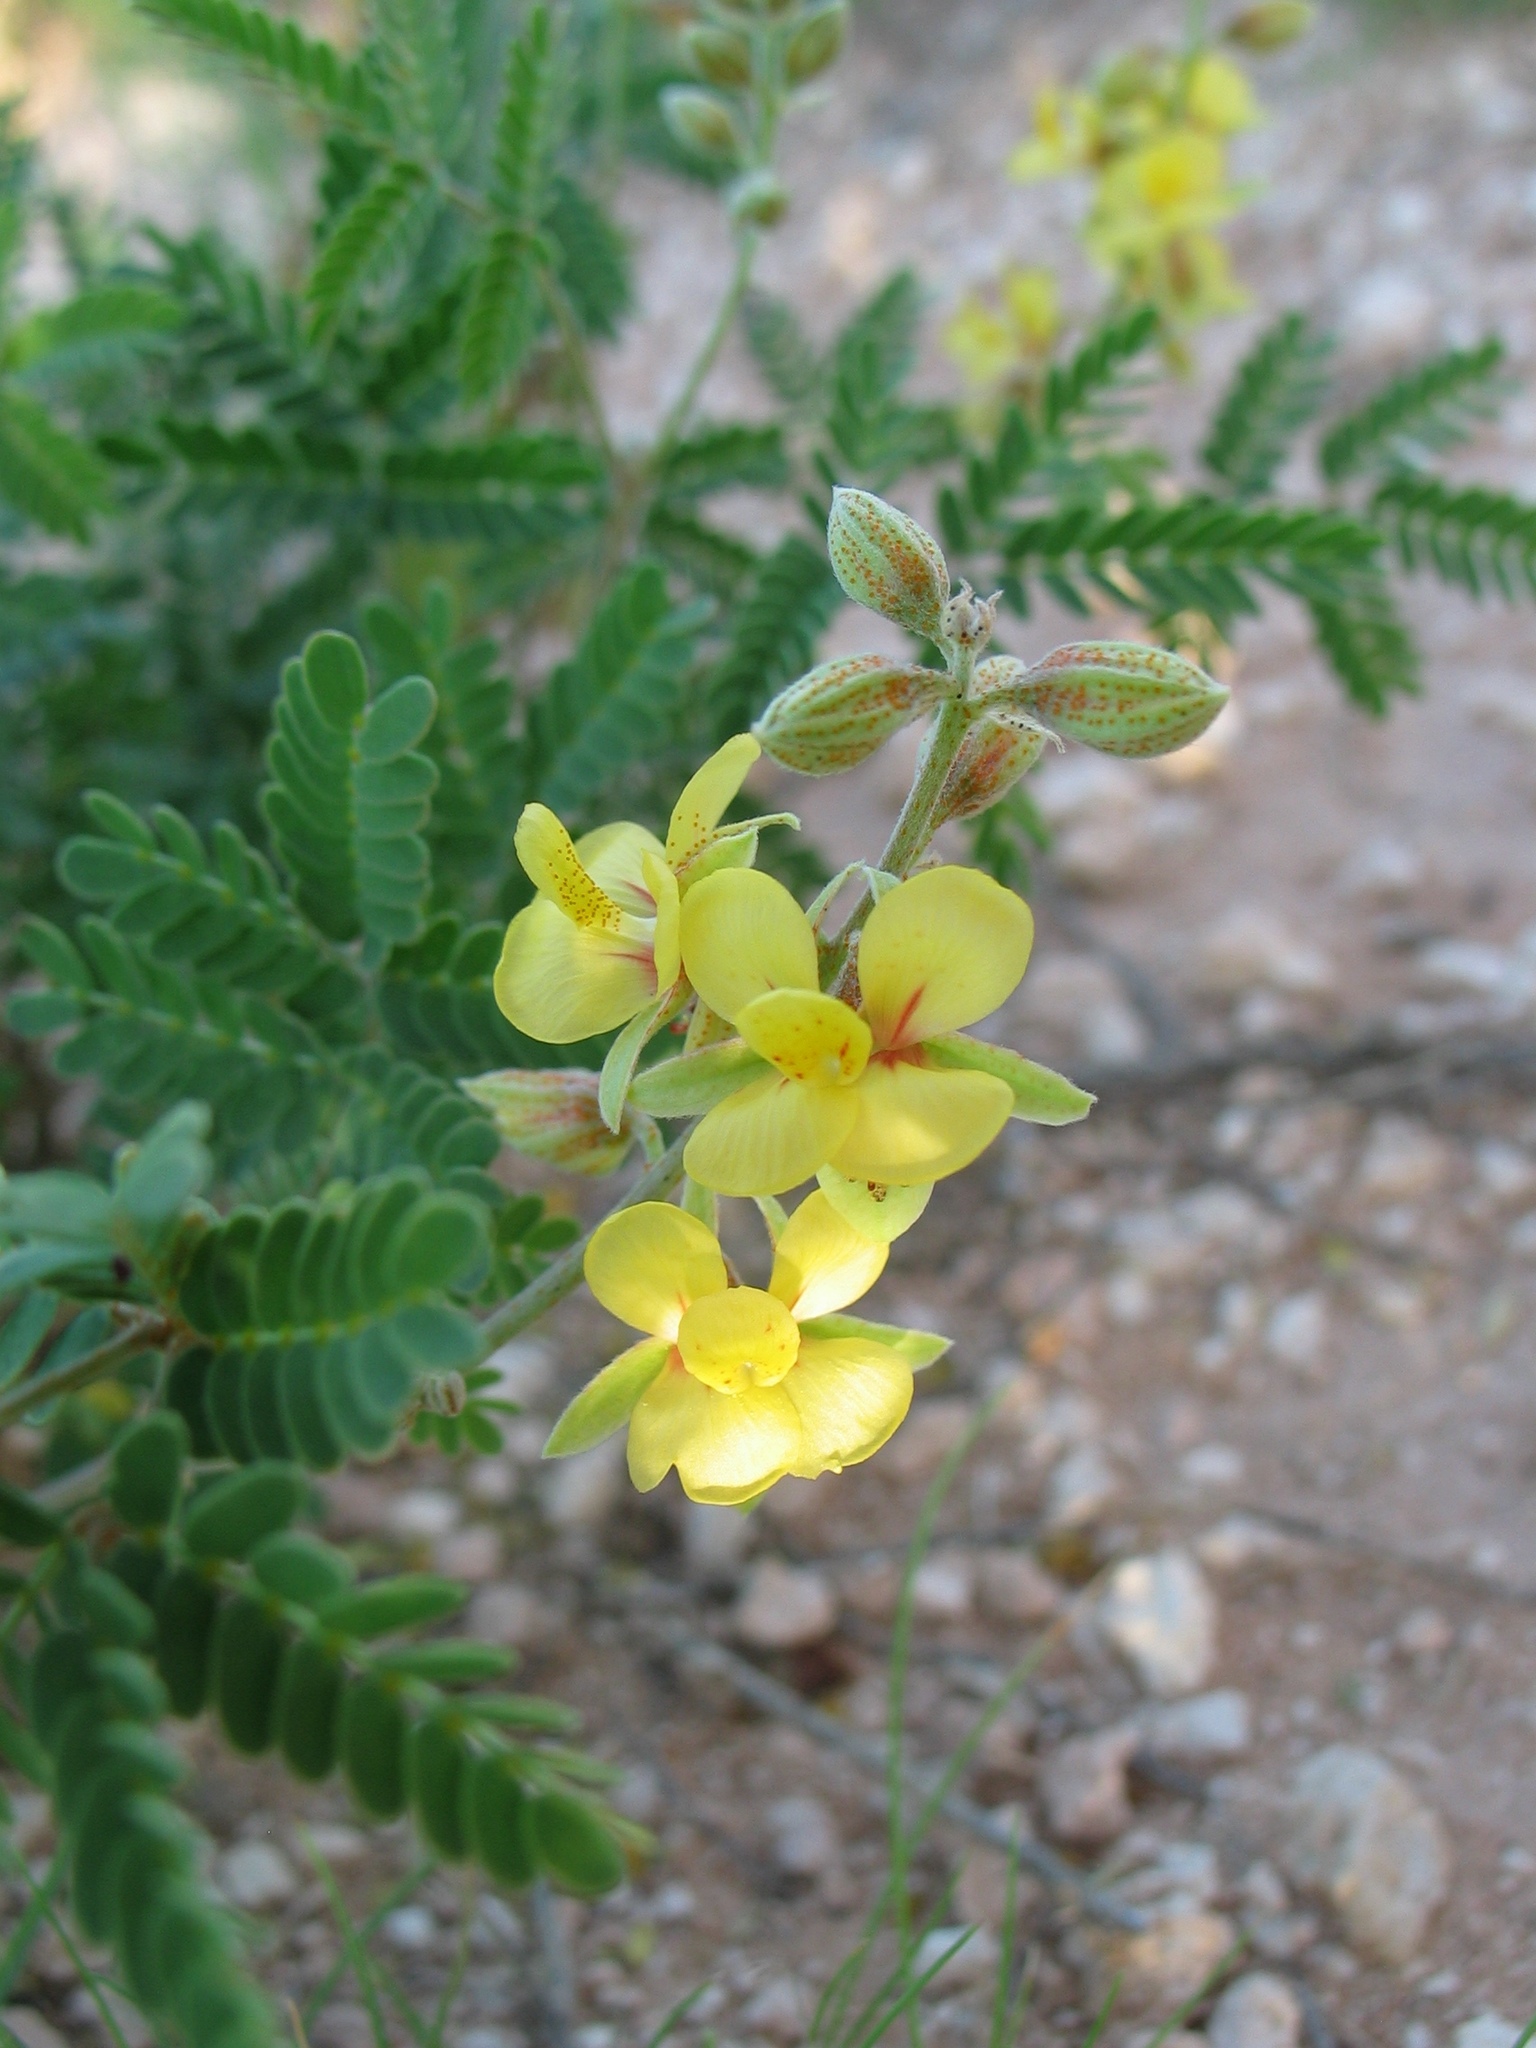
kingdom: Plantae
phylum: Tracheophyta
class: Magnoliopsida
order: Fabales
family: Fabaceae
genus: Pomaria
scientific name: Pomaria jamesii
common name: James' caesalpinia
